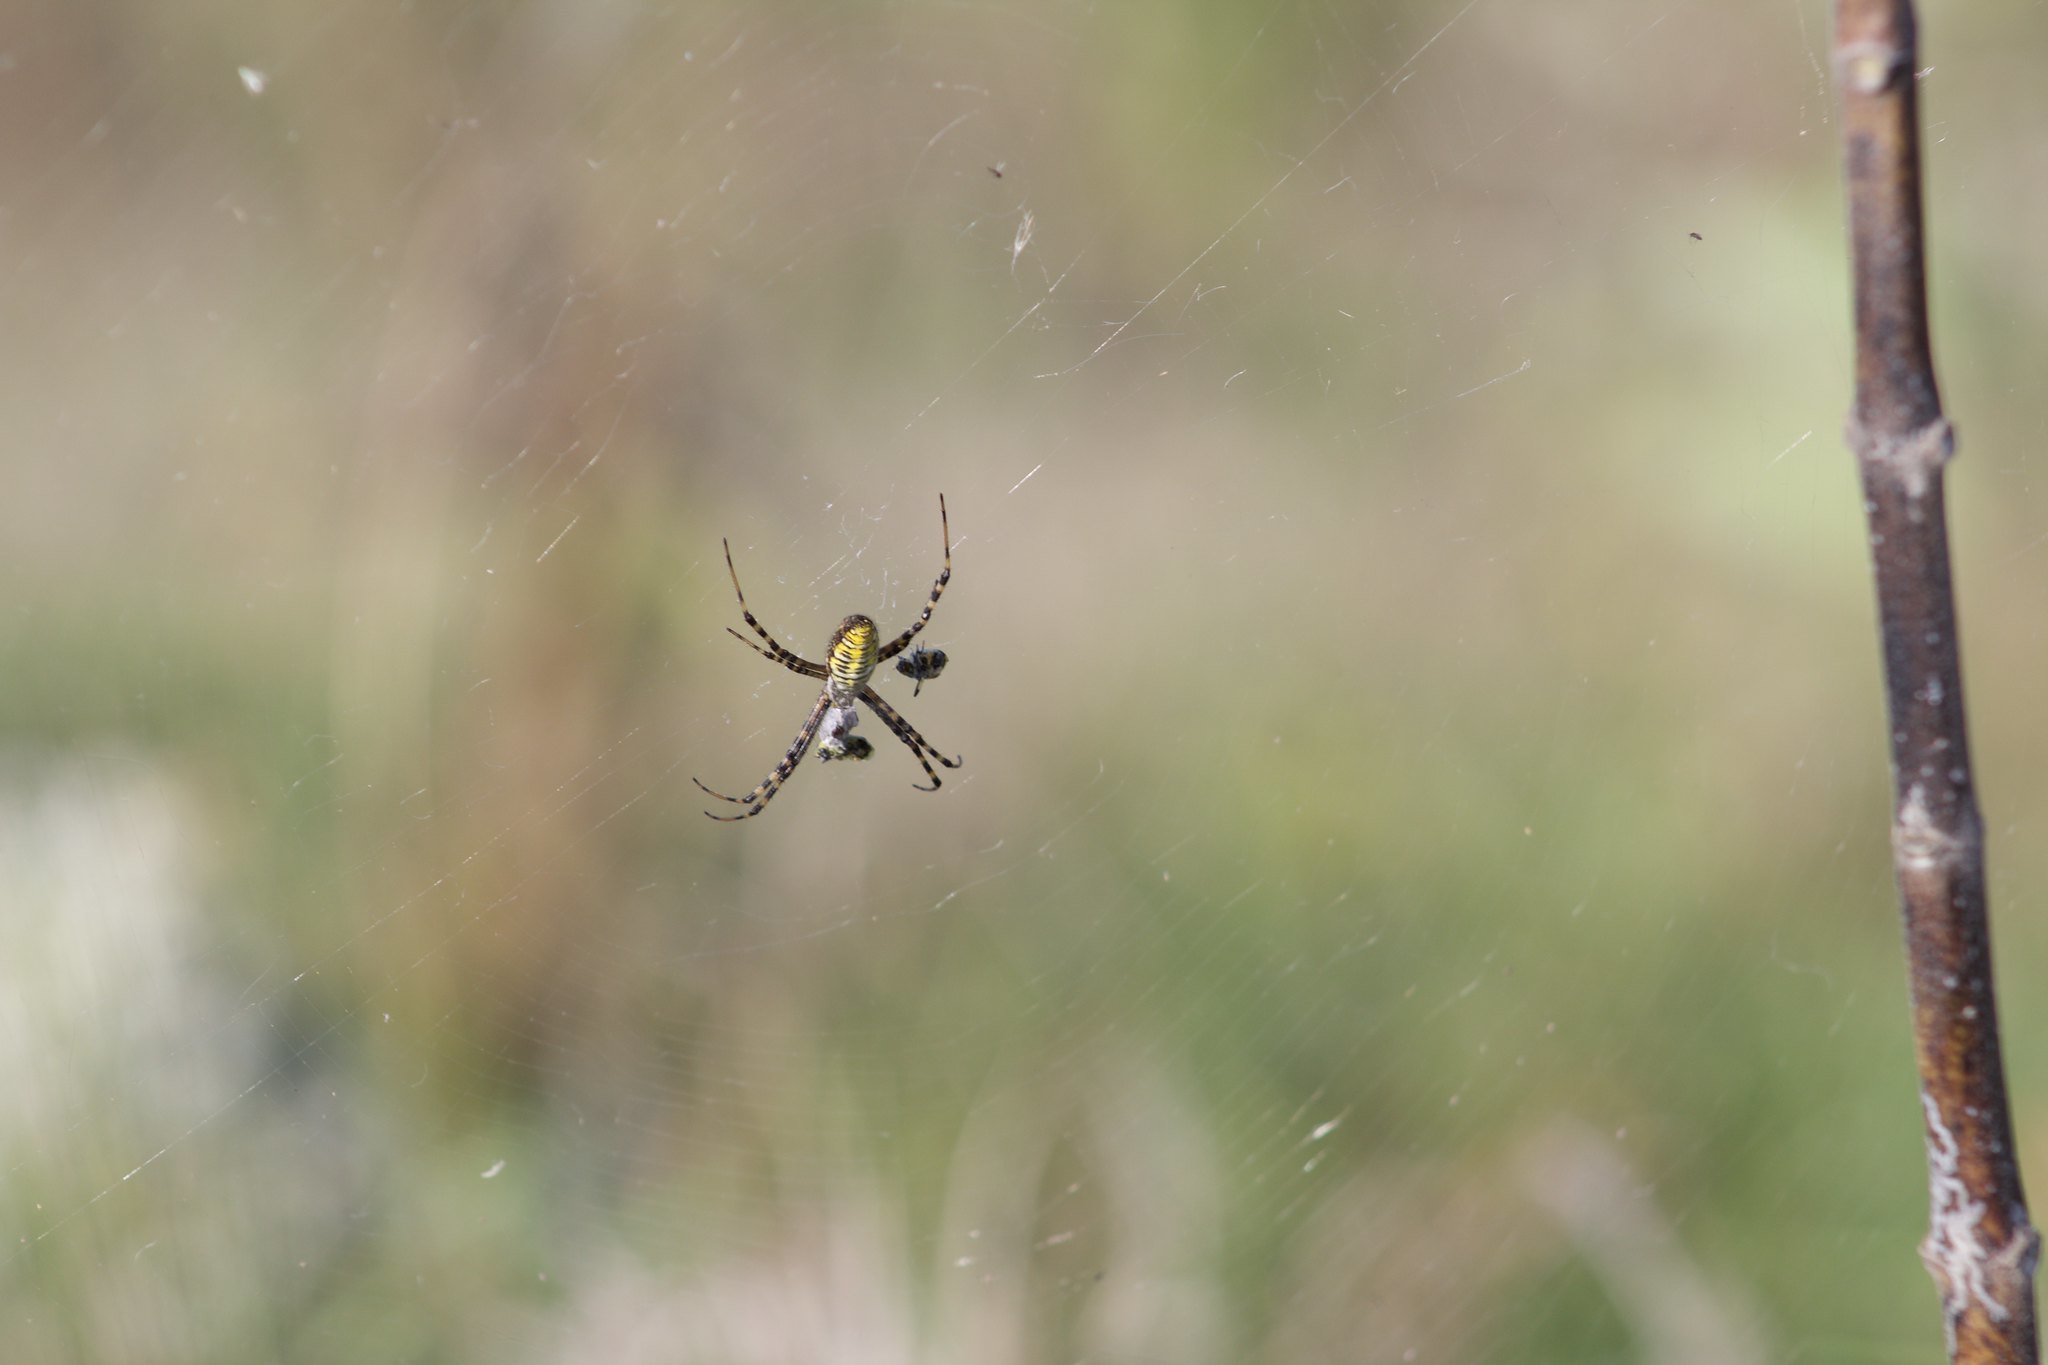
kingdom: Animalia
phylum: Arthropoda
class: Arachnida
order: Araneae
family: Araneidae
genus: Argiope
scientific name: Argiope trifasciata
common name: Banded garden spider
